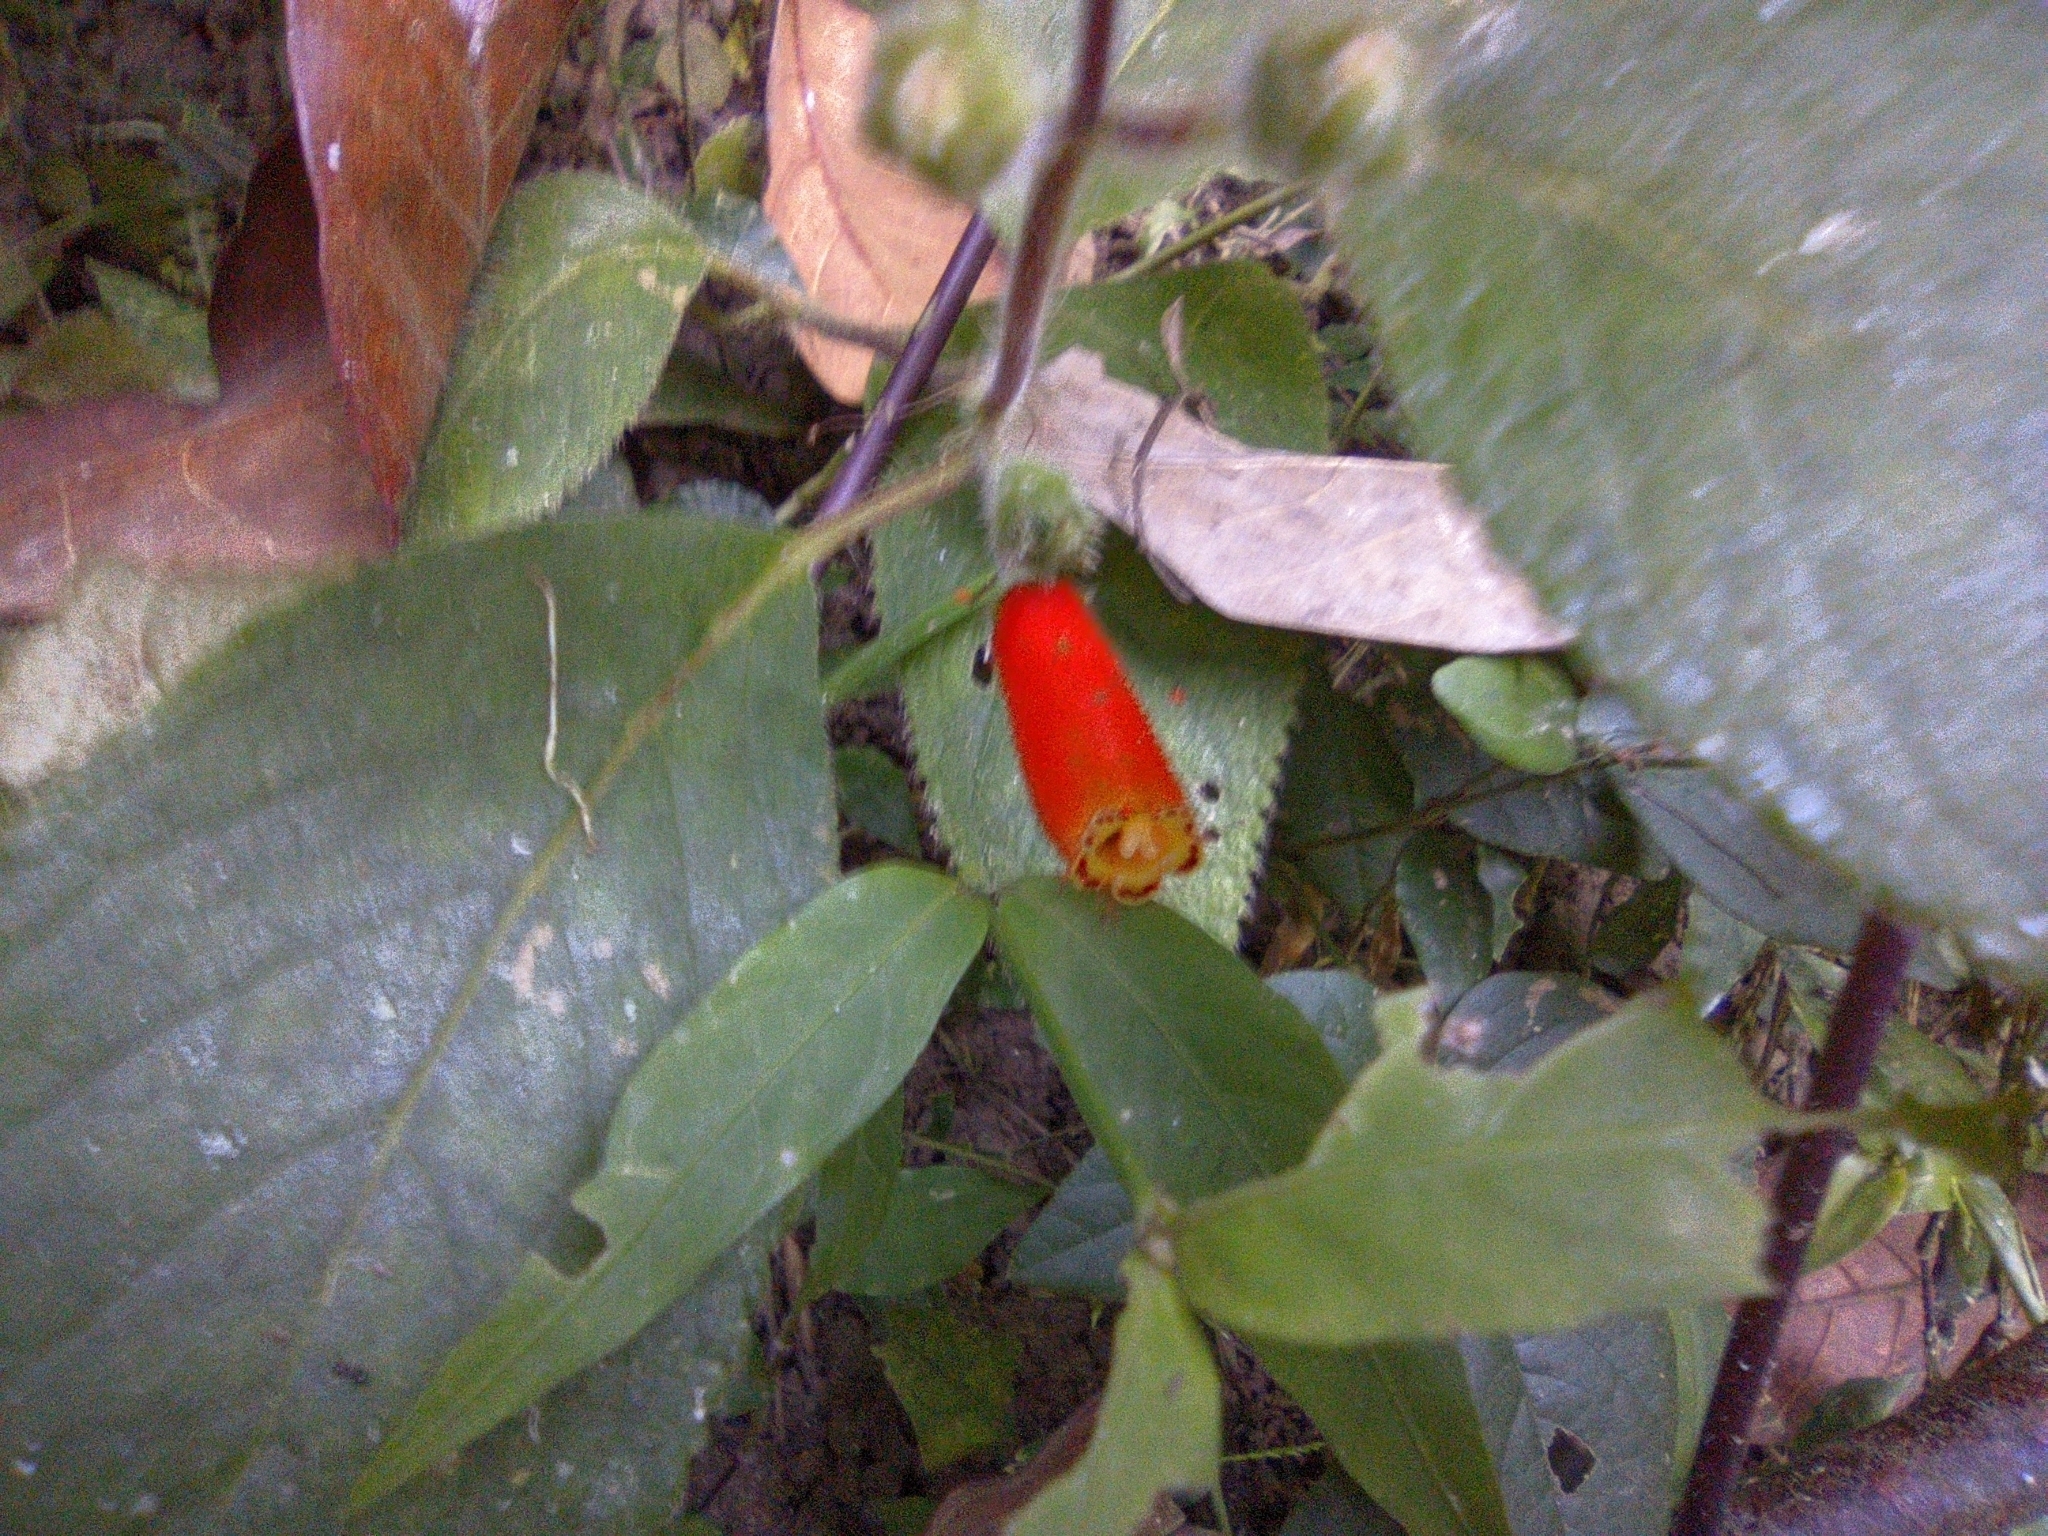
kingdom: Plantae
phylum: Tracheophyta
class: Magnoliopsida
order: Lamiales
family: Gesneriaceae
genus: Kohleria
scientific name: Kohleria tubiflora
